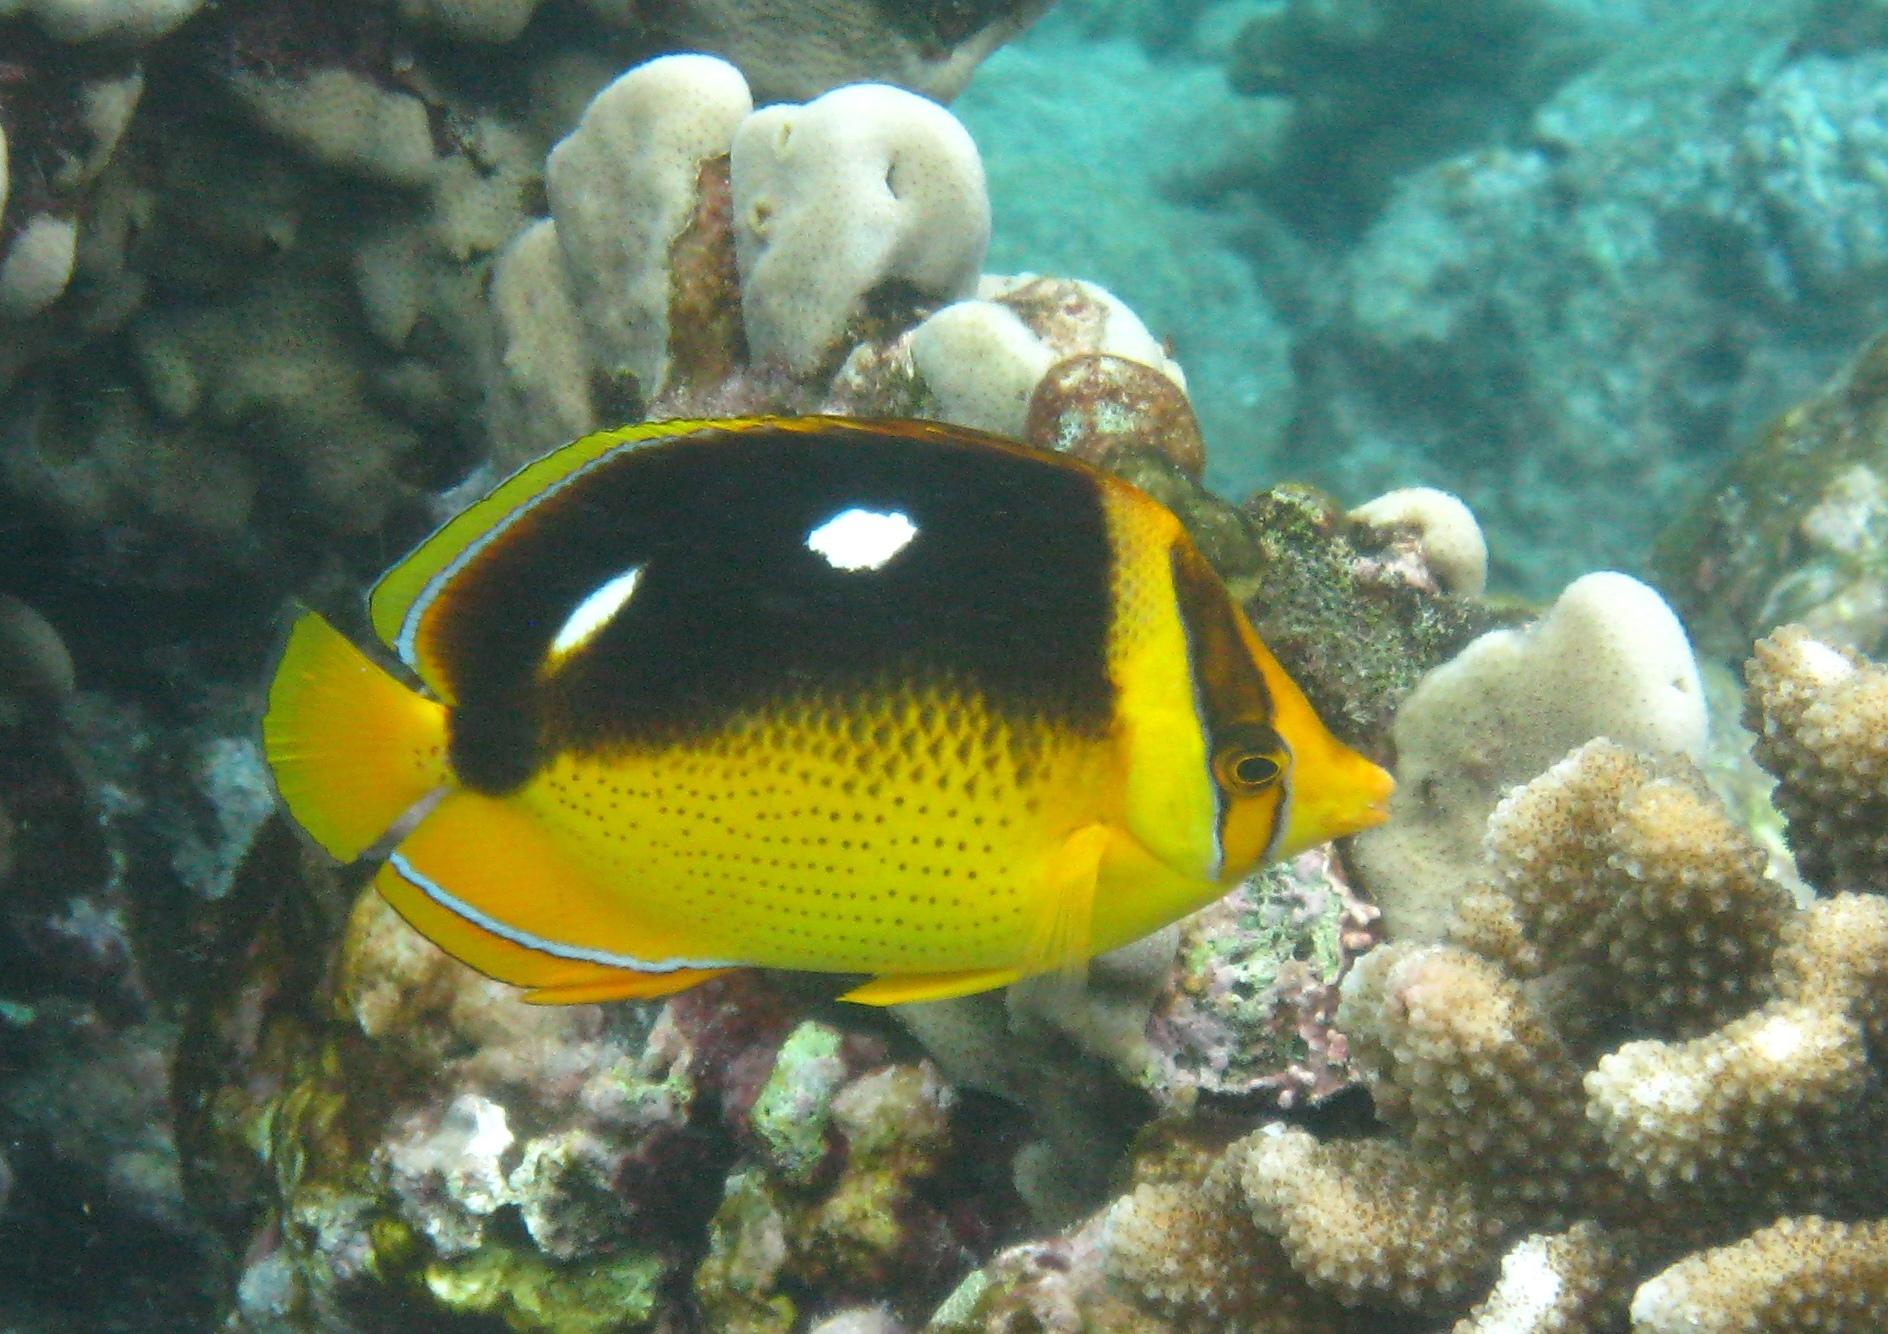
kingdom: Animalia
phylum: Chordata
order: Perciformes
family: Chaetodontidae
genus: Chaetodon
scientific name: Chaetodon quadrimaculatus
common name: Fourspot butterflyfish
